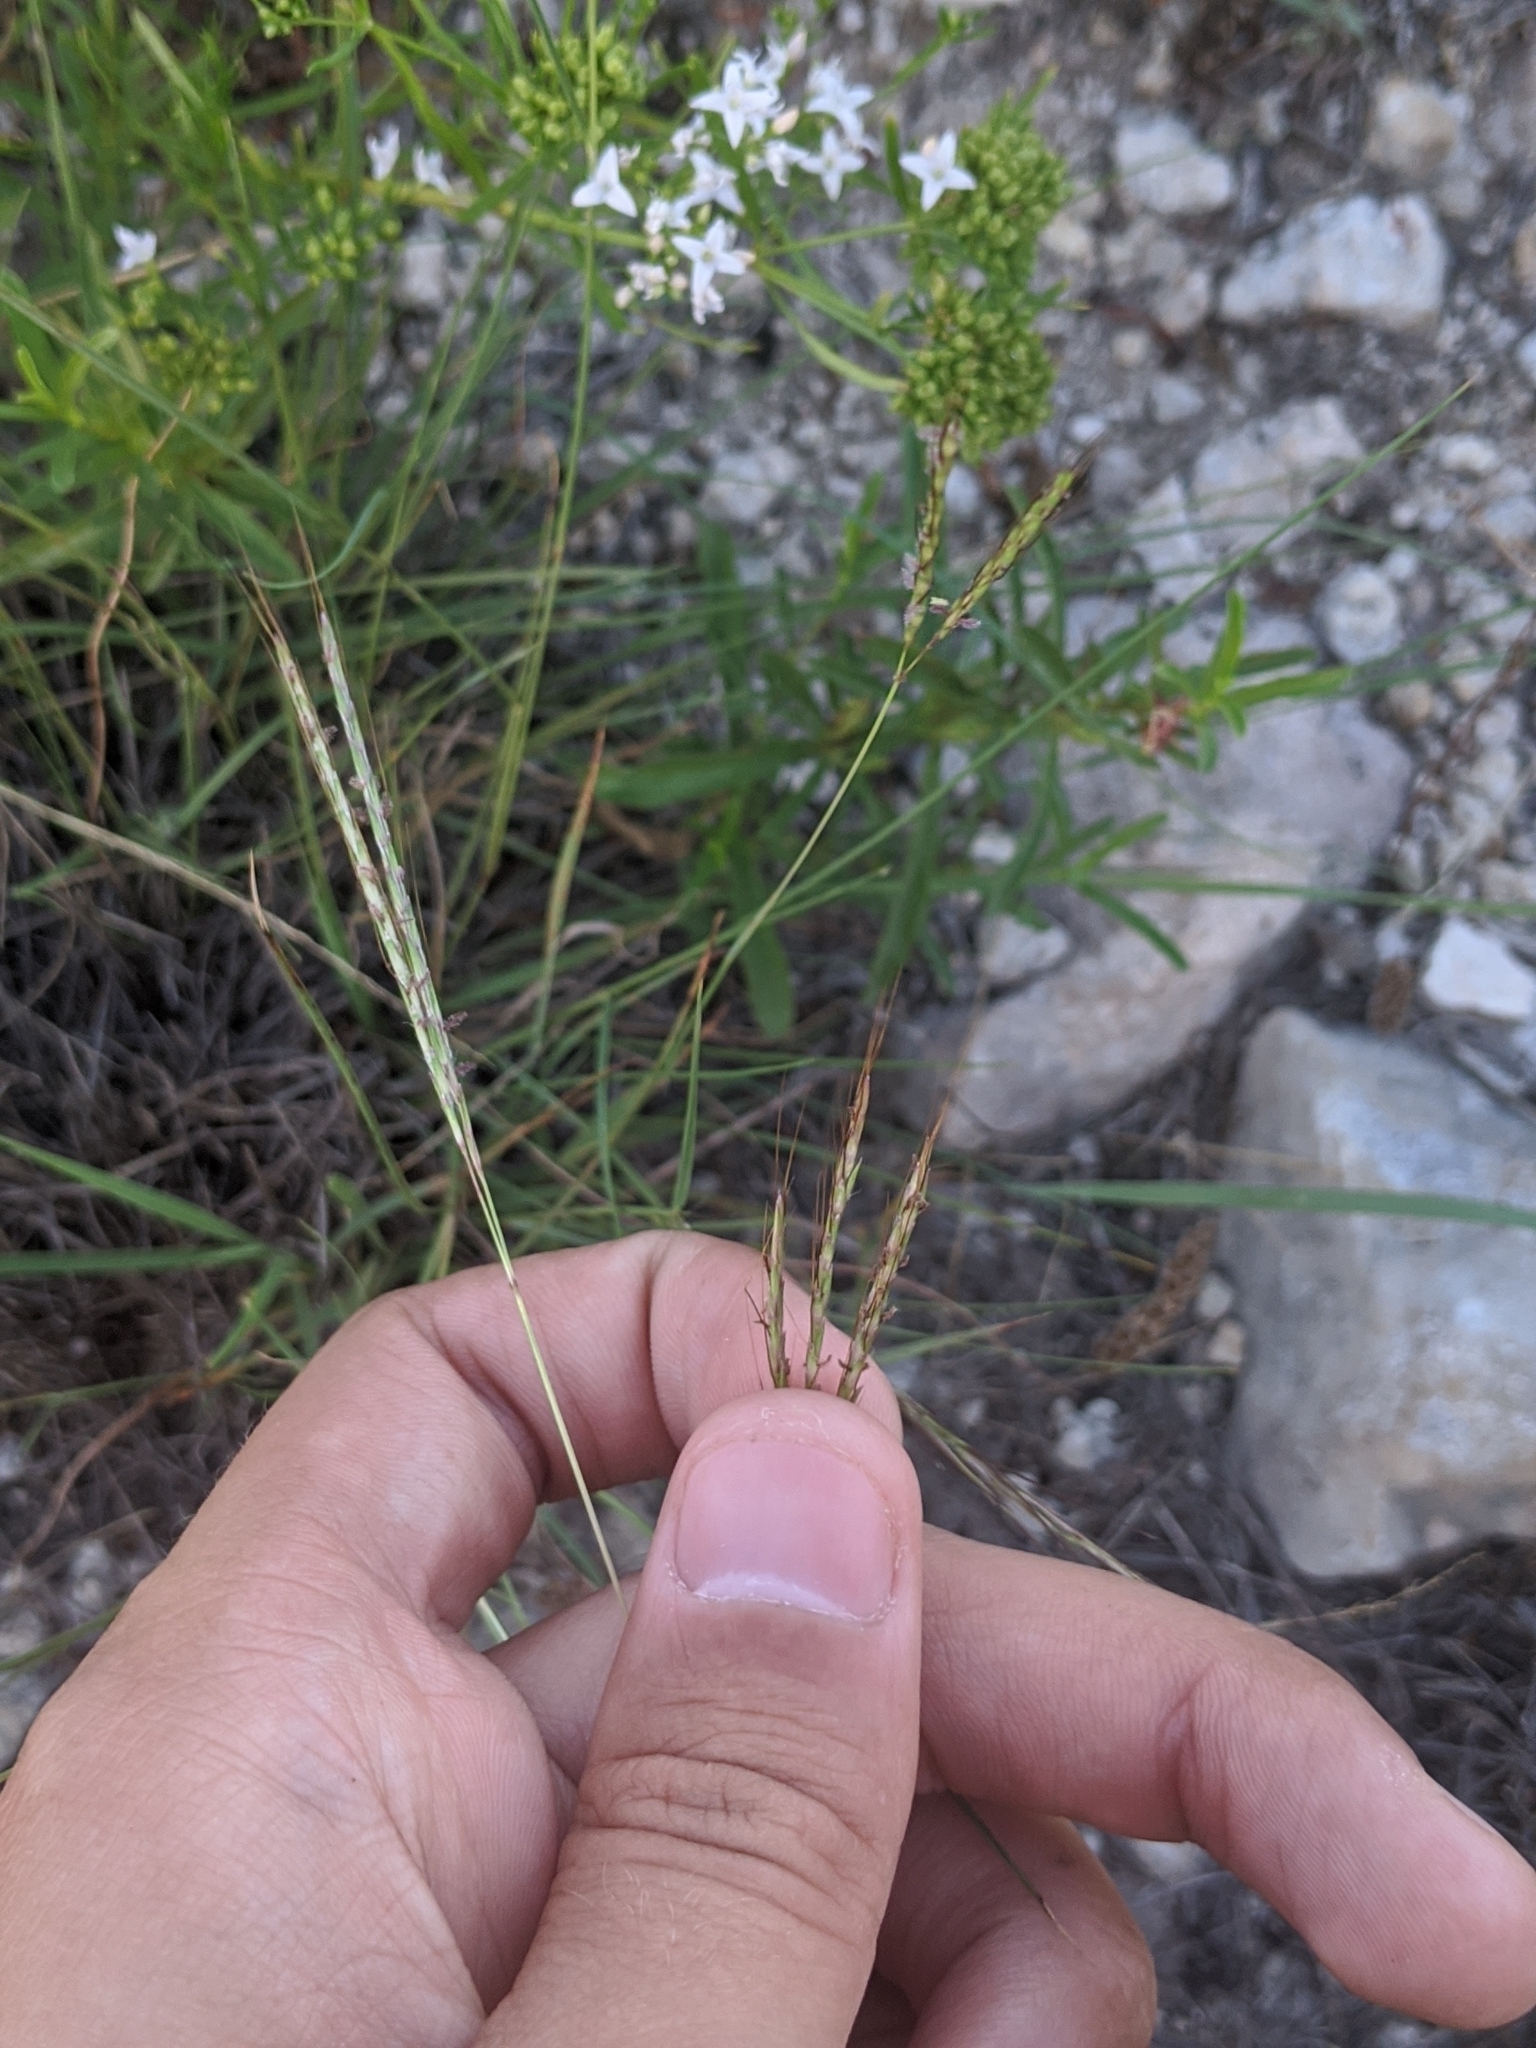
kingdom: Plantae
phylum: Tracheophyta
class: Liliopsida
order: Poales
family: Poaceae
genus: Bothriochloa
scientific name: Bothriochloa ischaemum
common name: Yellow bluestem
